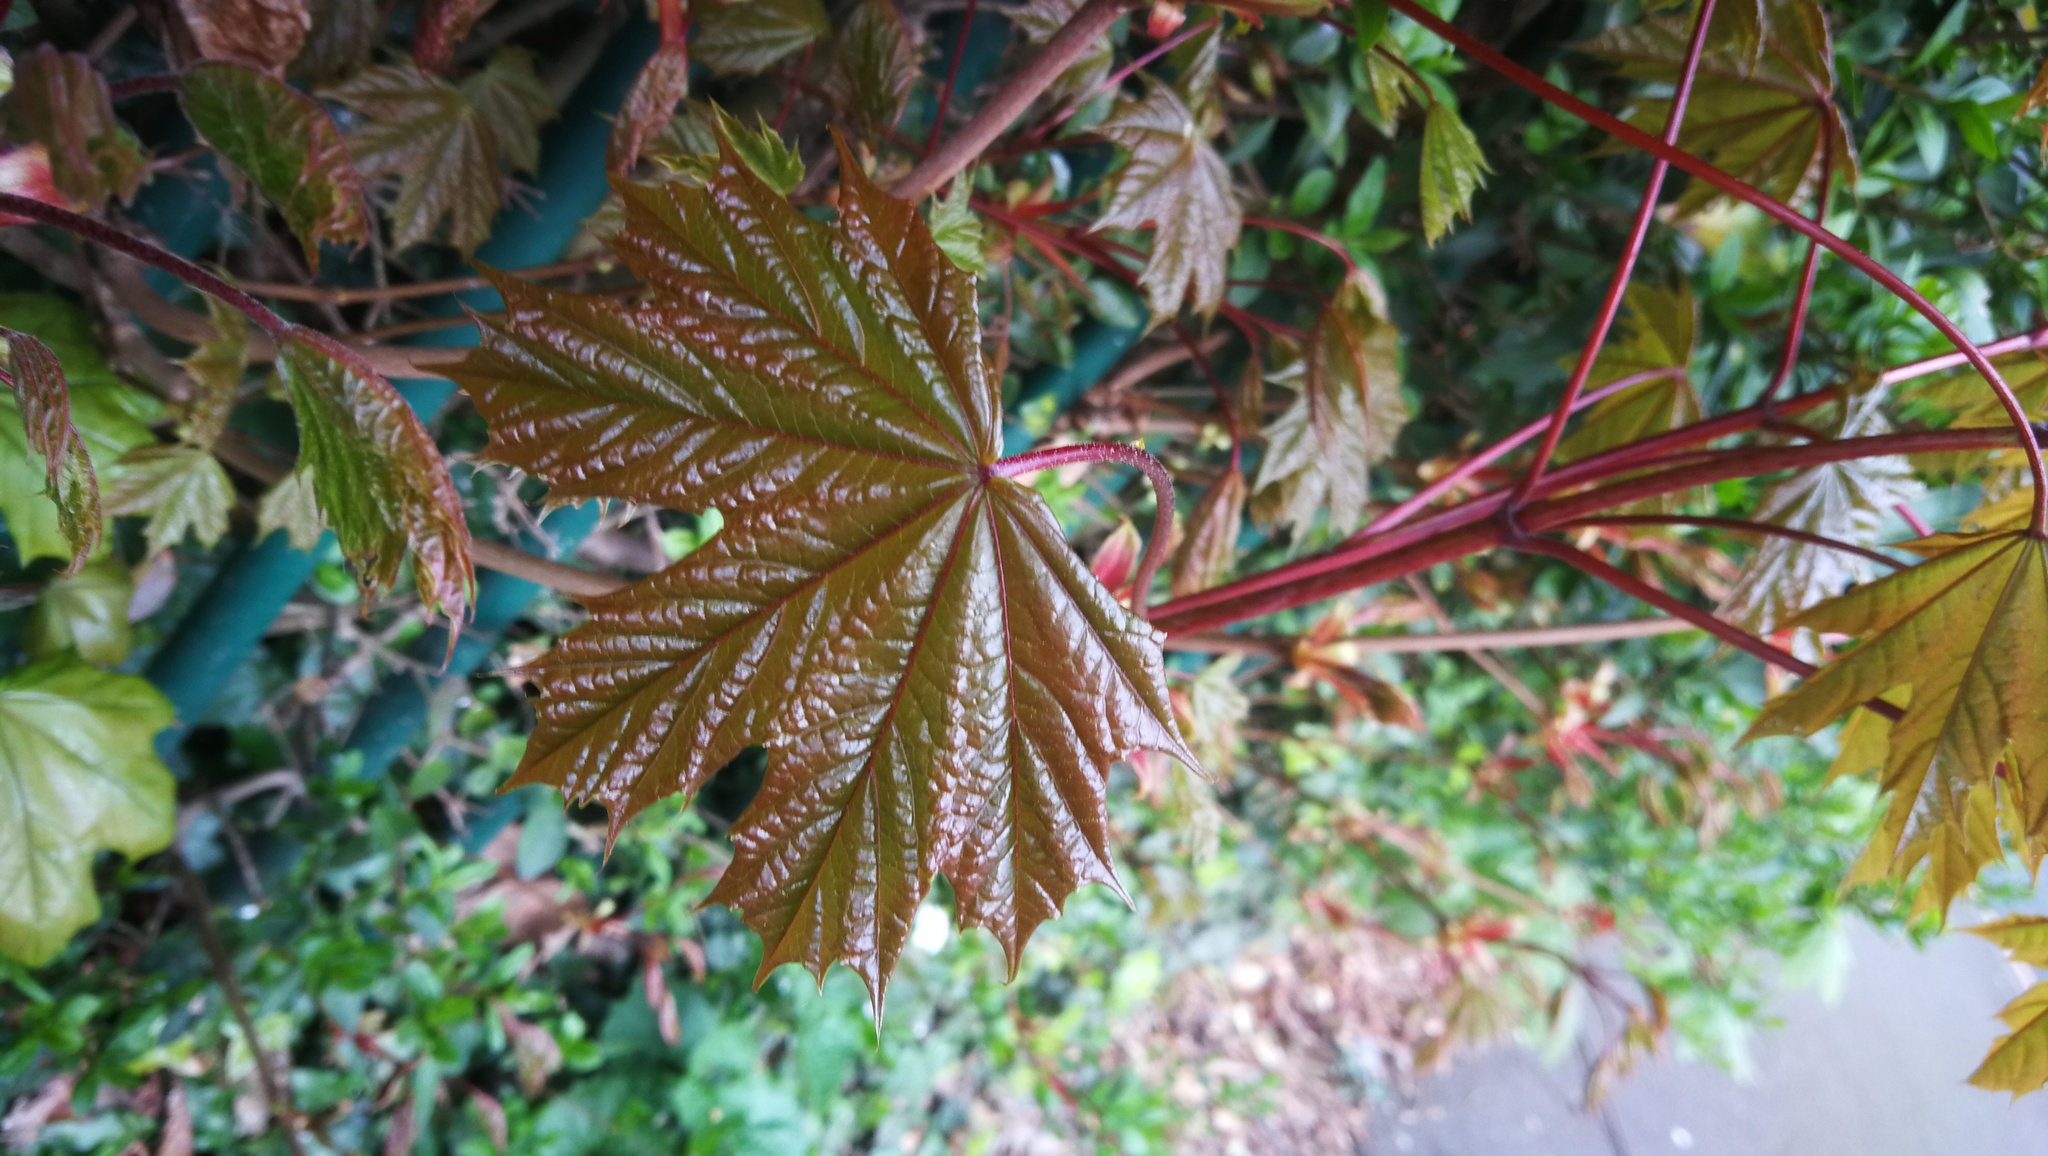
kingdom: Plantae
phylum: Tracheophyta
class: Magnoliopsida
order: Sapindales
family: Sapindaceae
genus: Acer
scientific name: Acer platanoides
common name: Norway maple
